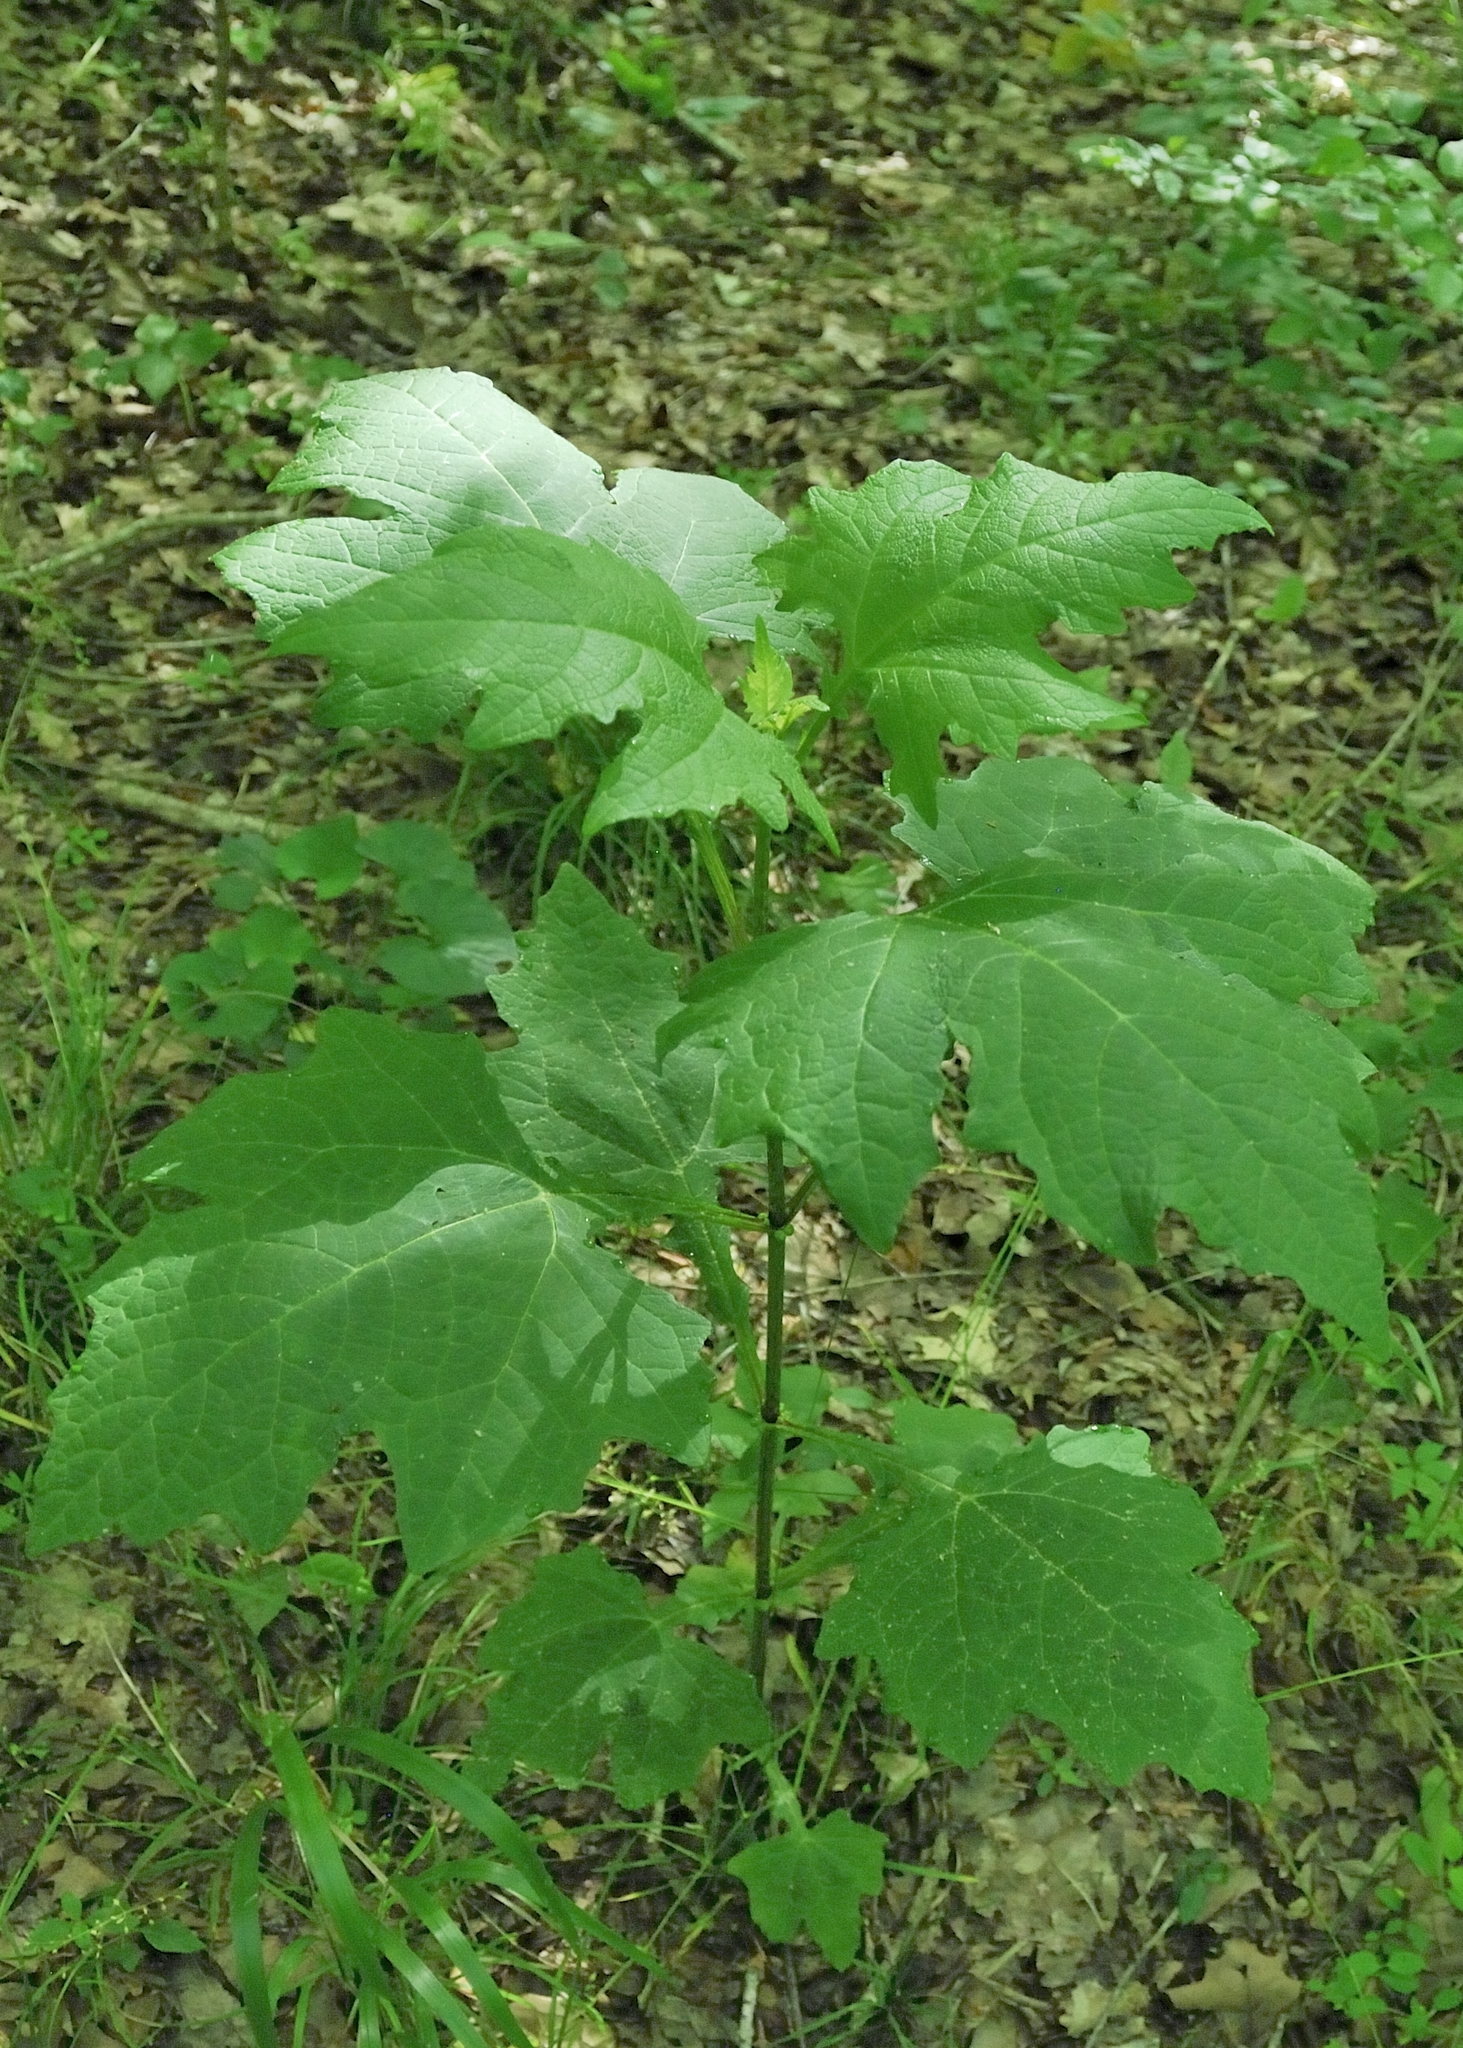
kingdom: Plantae
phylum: Tracheophyta
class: Magnoliopsida
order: Asterales
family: Asteraceae
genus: Smallanthus
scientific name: Smallanthus uvedalia
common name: Bear's-foot
